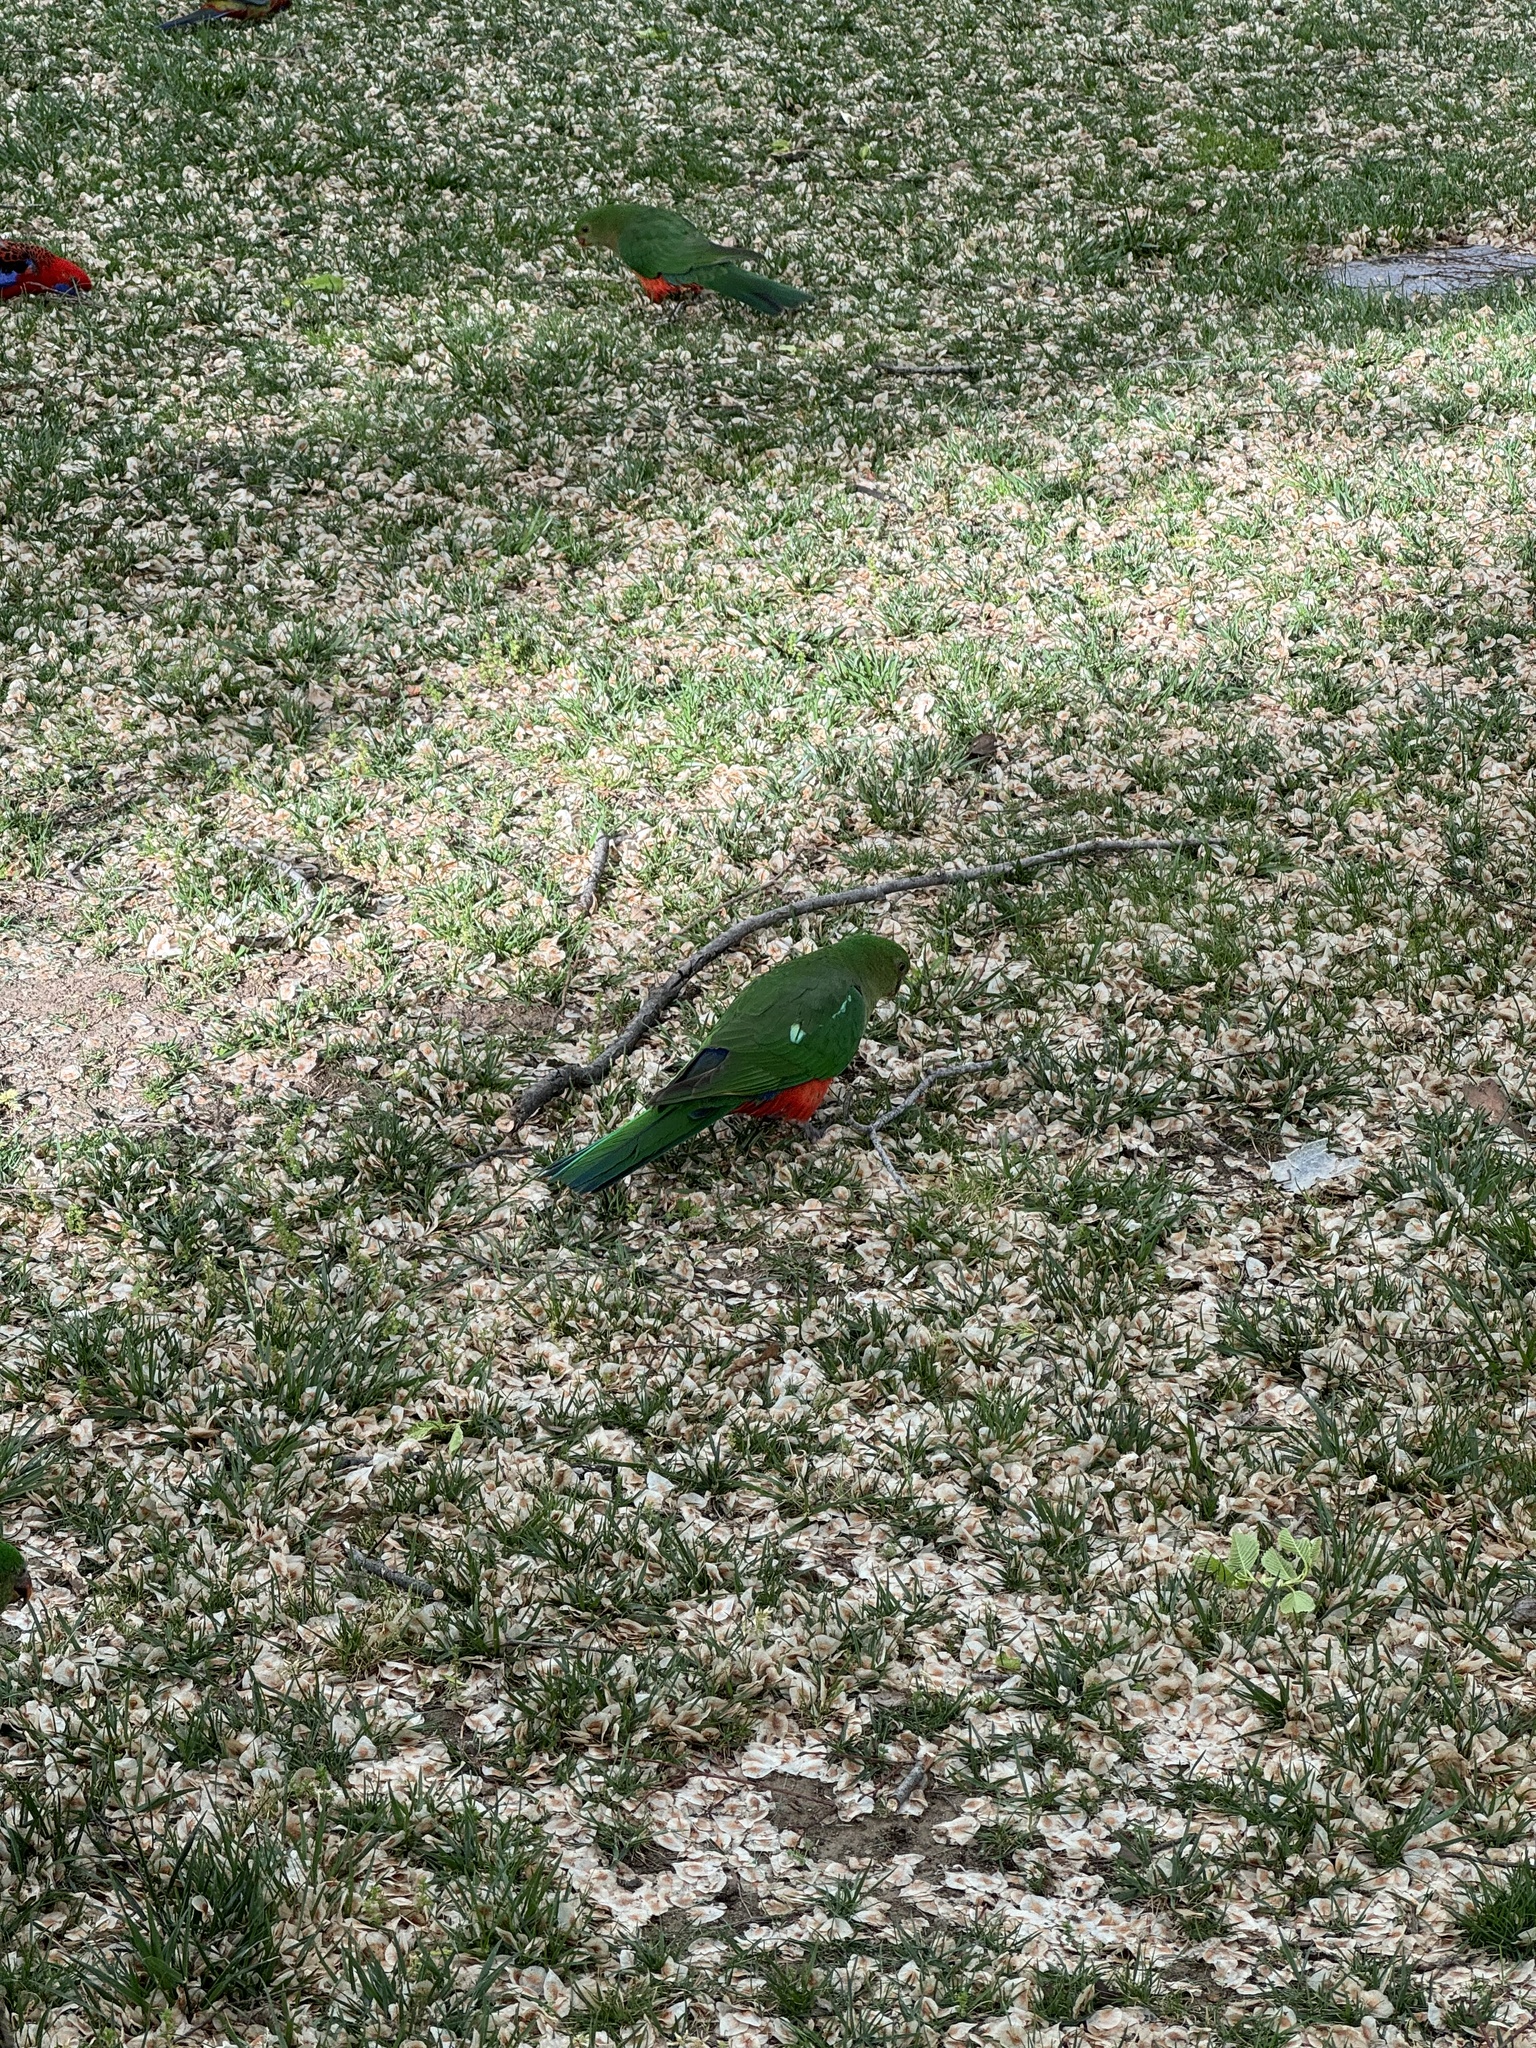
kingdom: Animalia
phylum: Chordata
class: Aves
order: Psittaciformes
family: Psittacidae
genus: Alisterus
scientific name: Alisterus scapularis
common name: Australian king parrot
